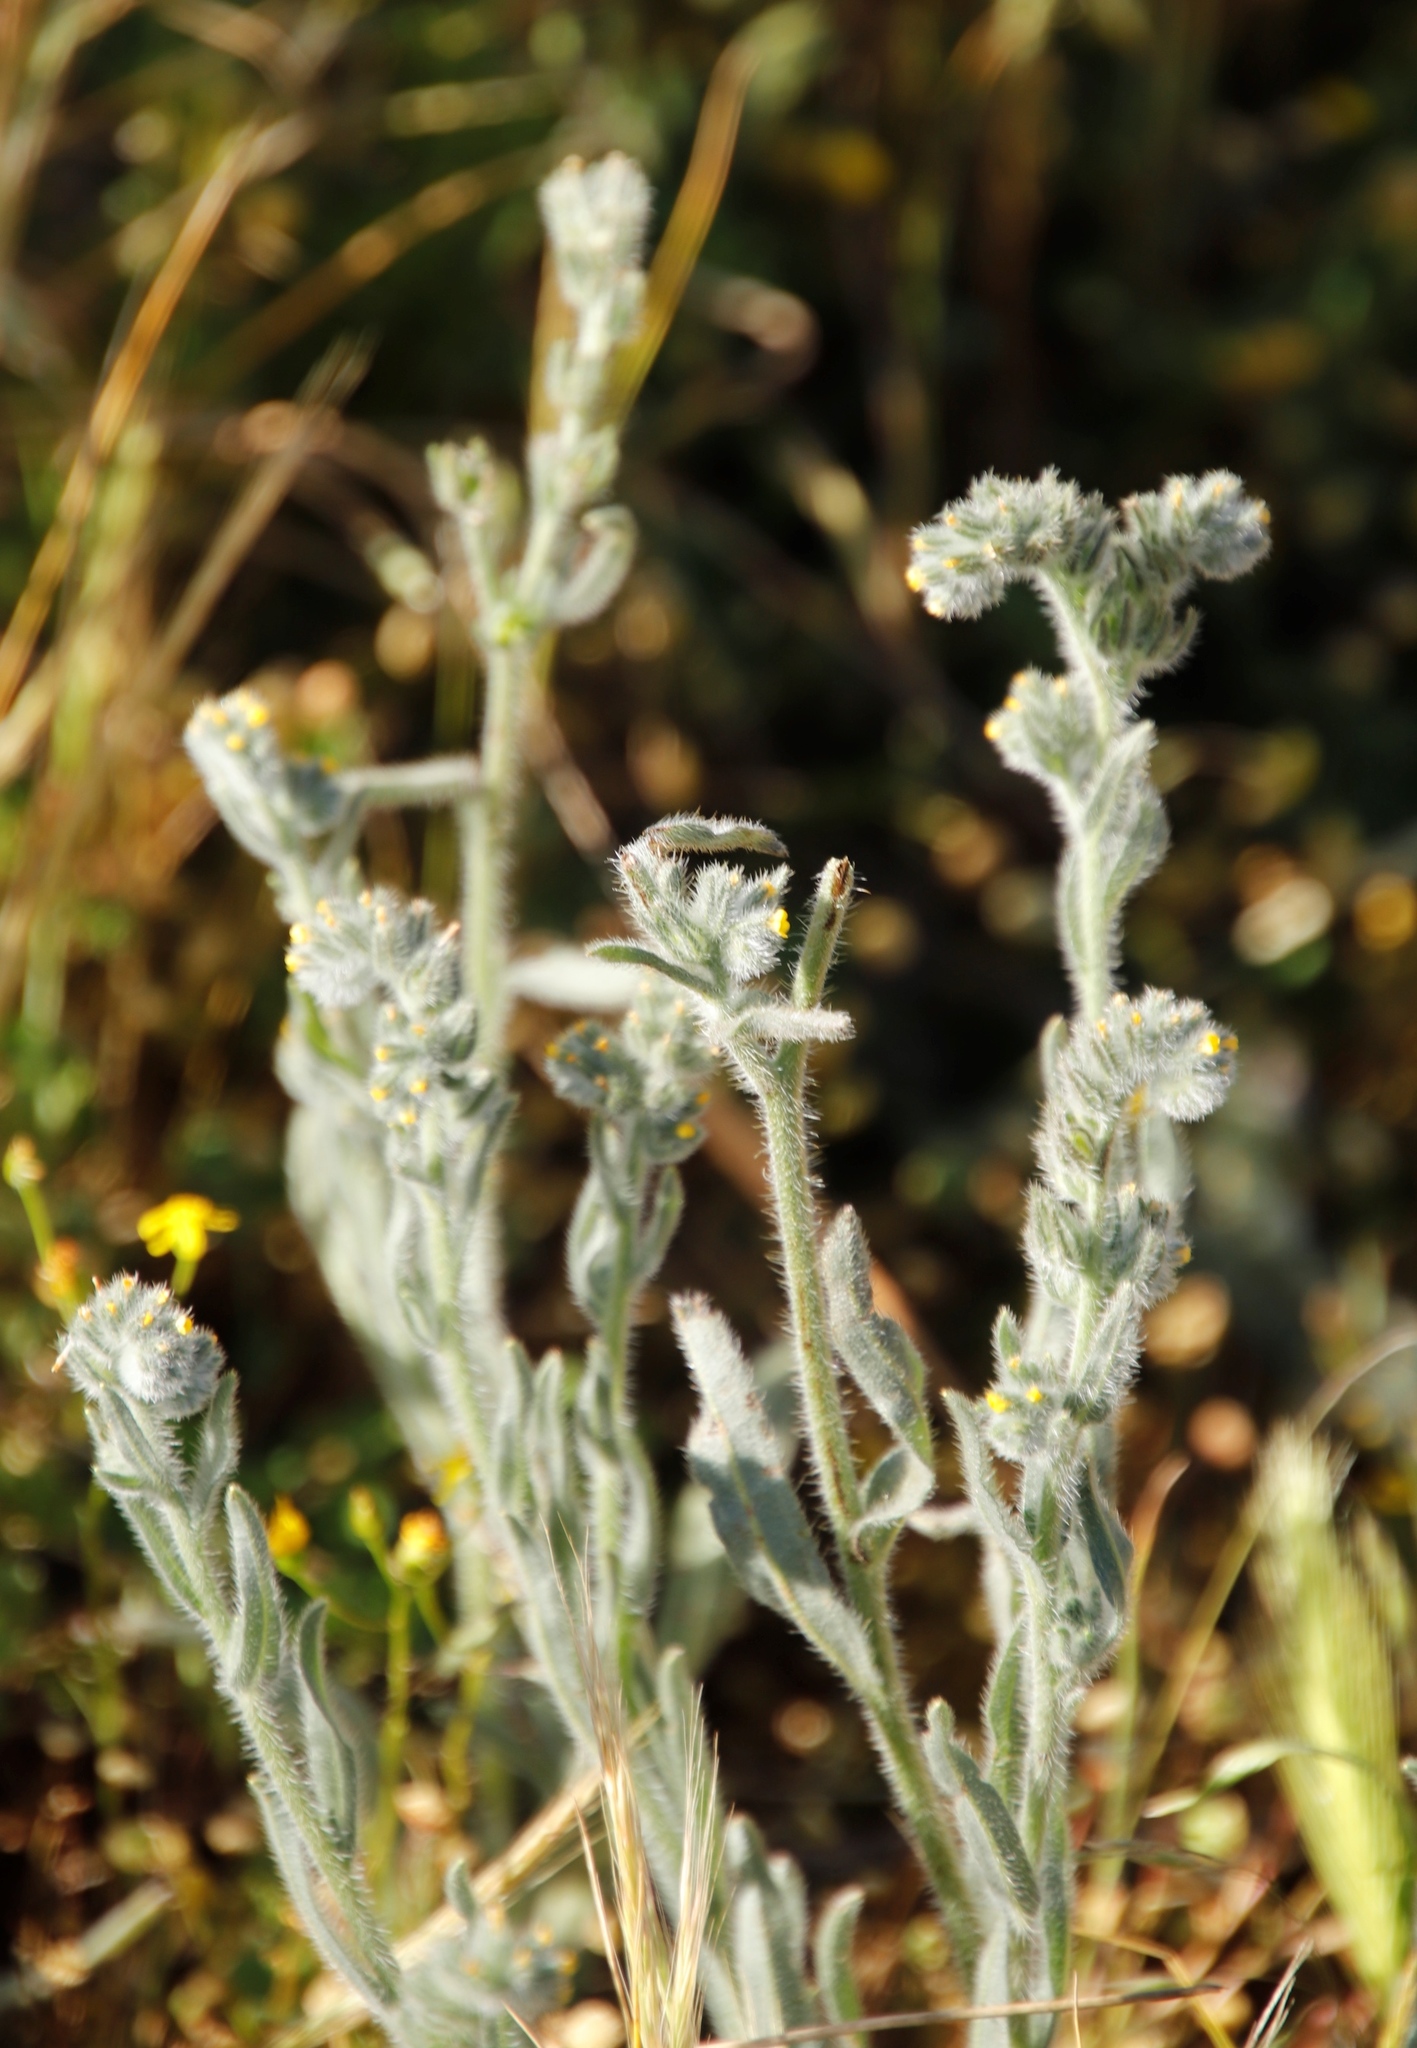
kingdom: Plantae
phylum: Tracheophyta
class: Magnoliopsida
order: Boraginales
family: Boraginaceae
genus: Amsinckia
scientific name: Amsinckia menziesii
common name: Menzies' fiddleneck
